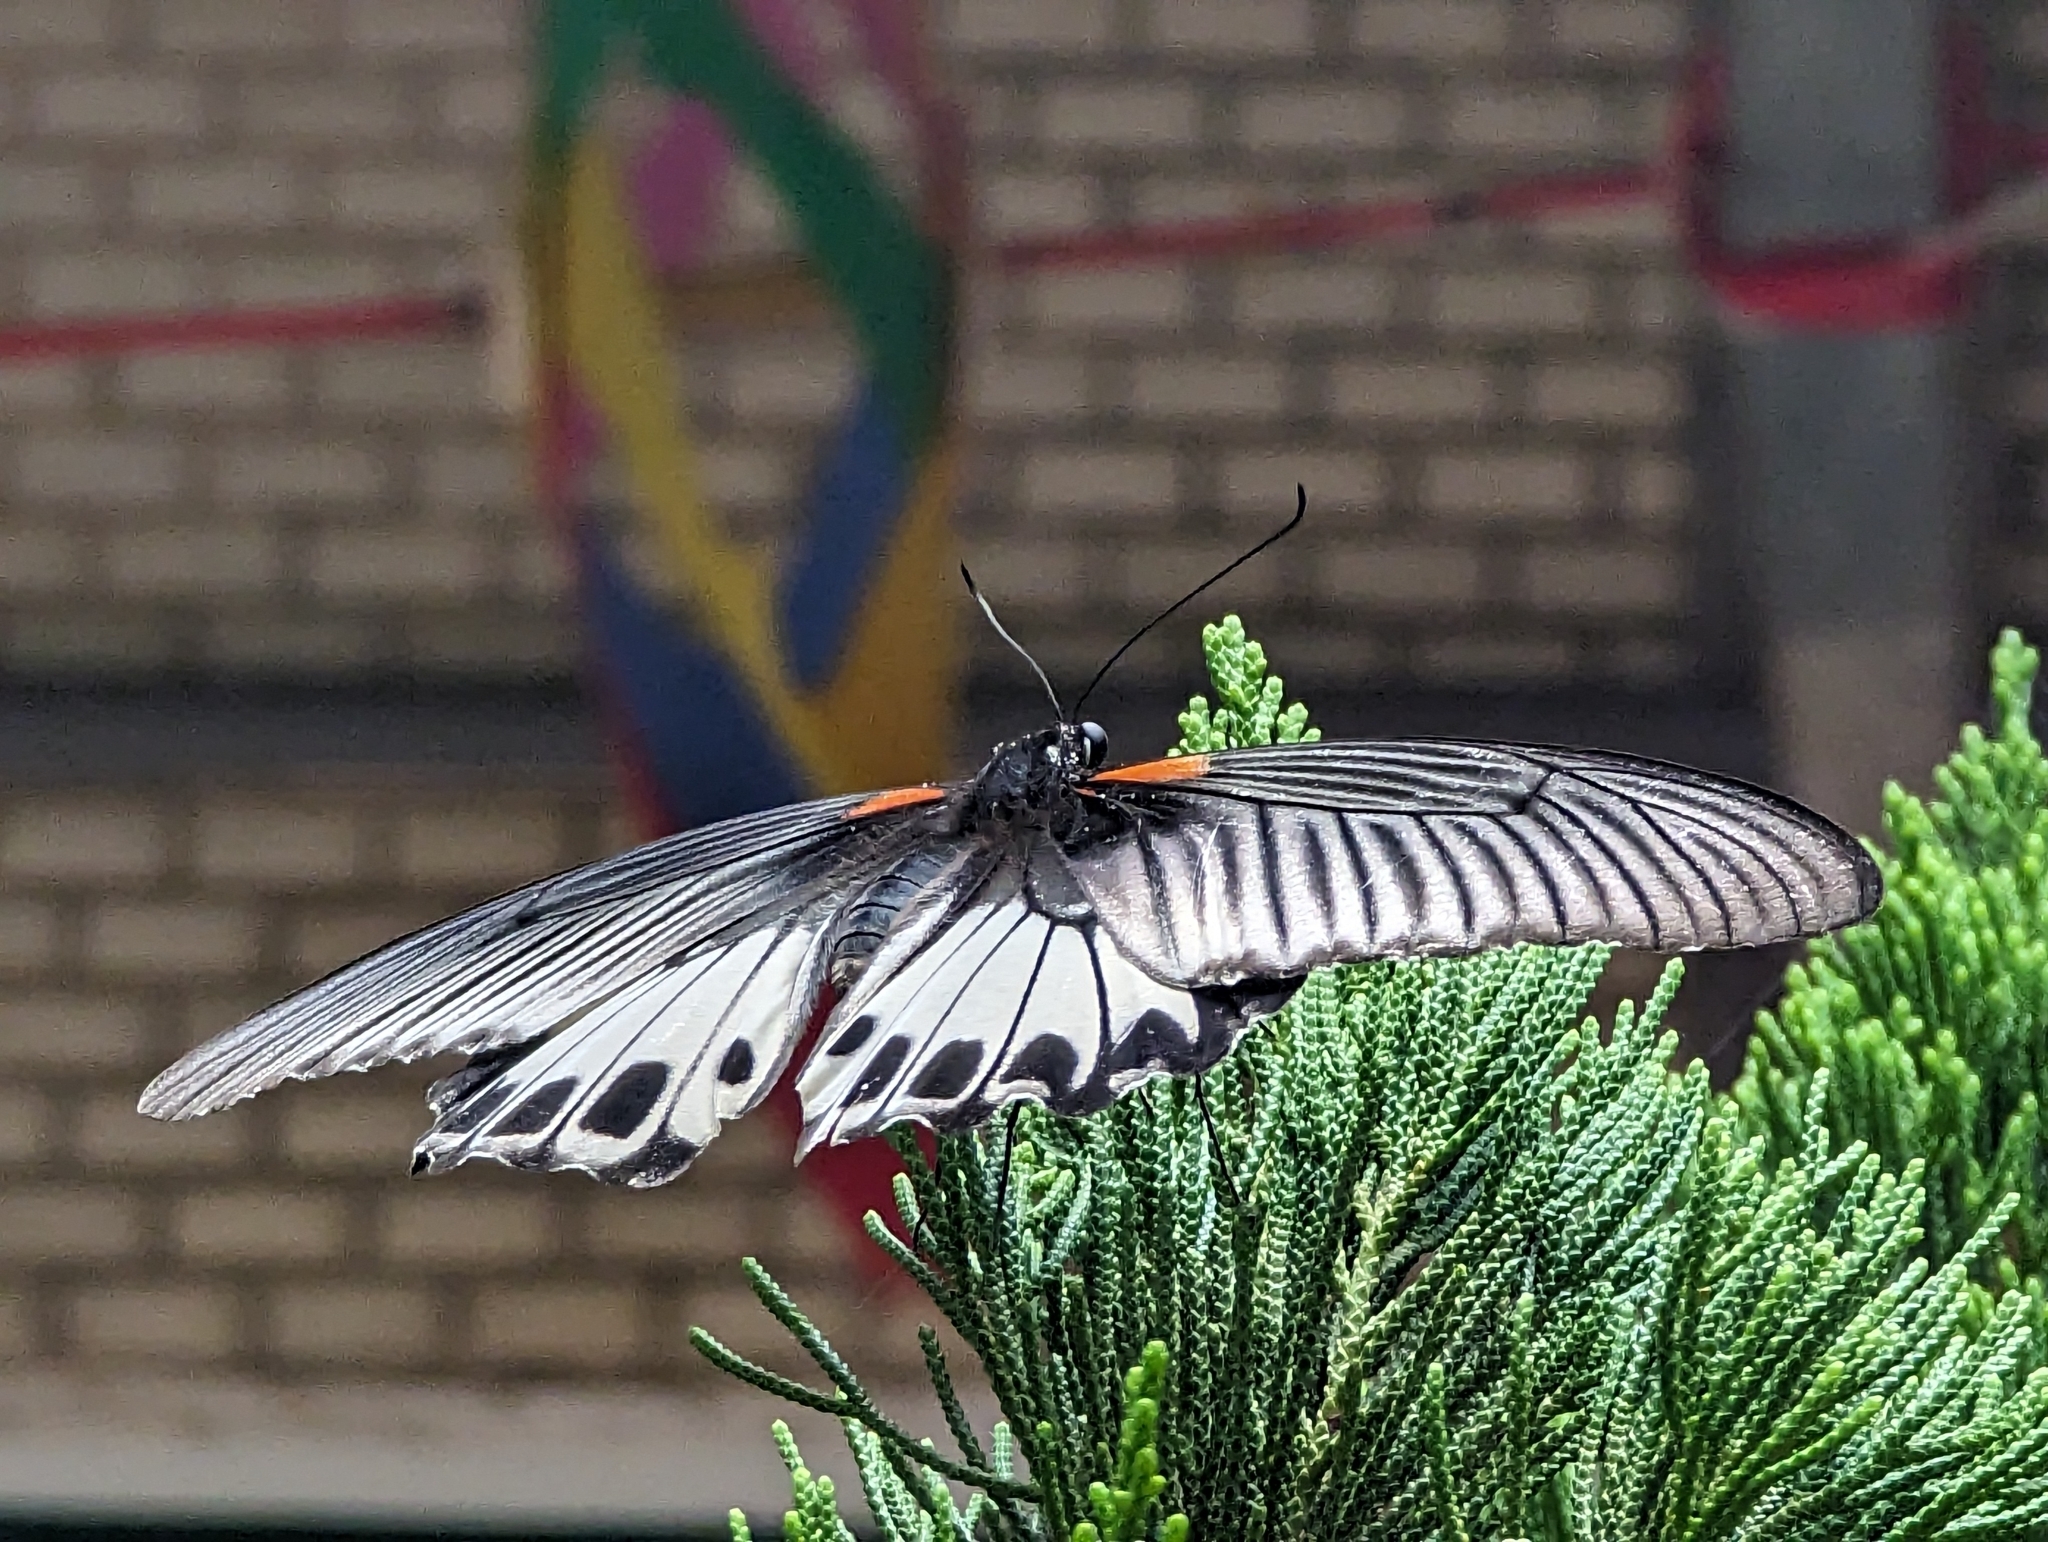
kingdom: Animalia
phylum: Arthropoda
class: Insecta
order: Lepidoptera
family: Papilionidae
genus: Papilio
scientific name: Papilio memnon
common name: Great mormon
